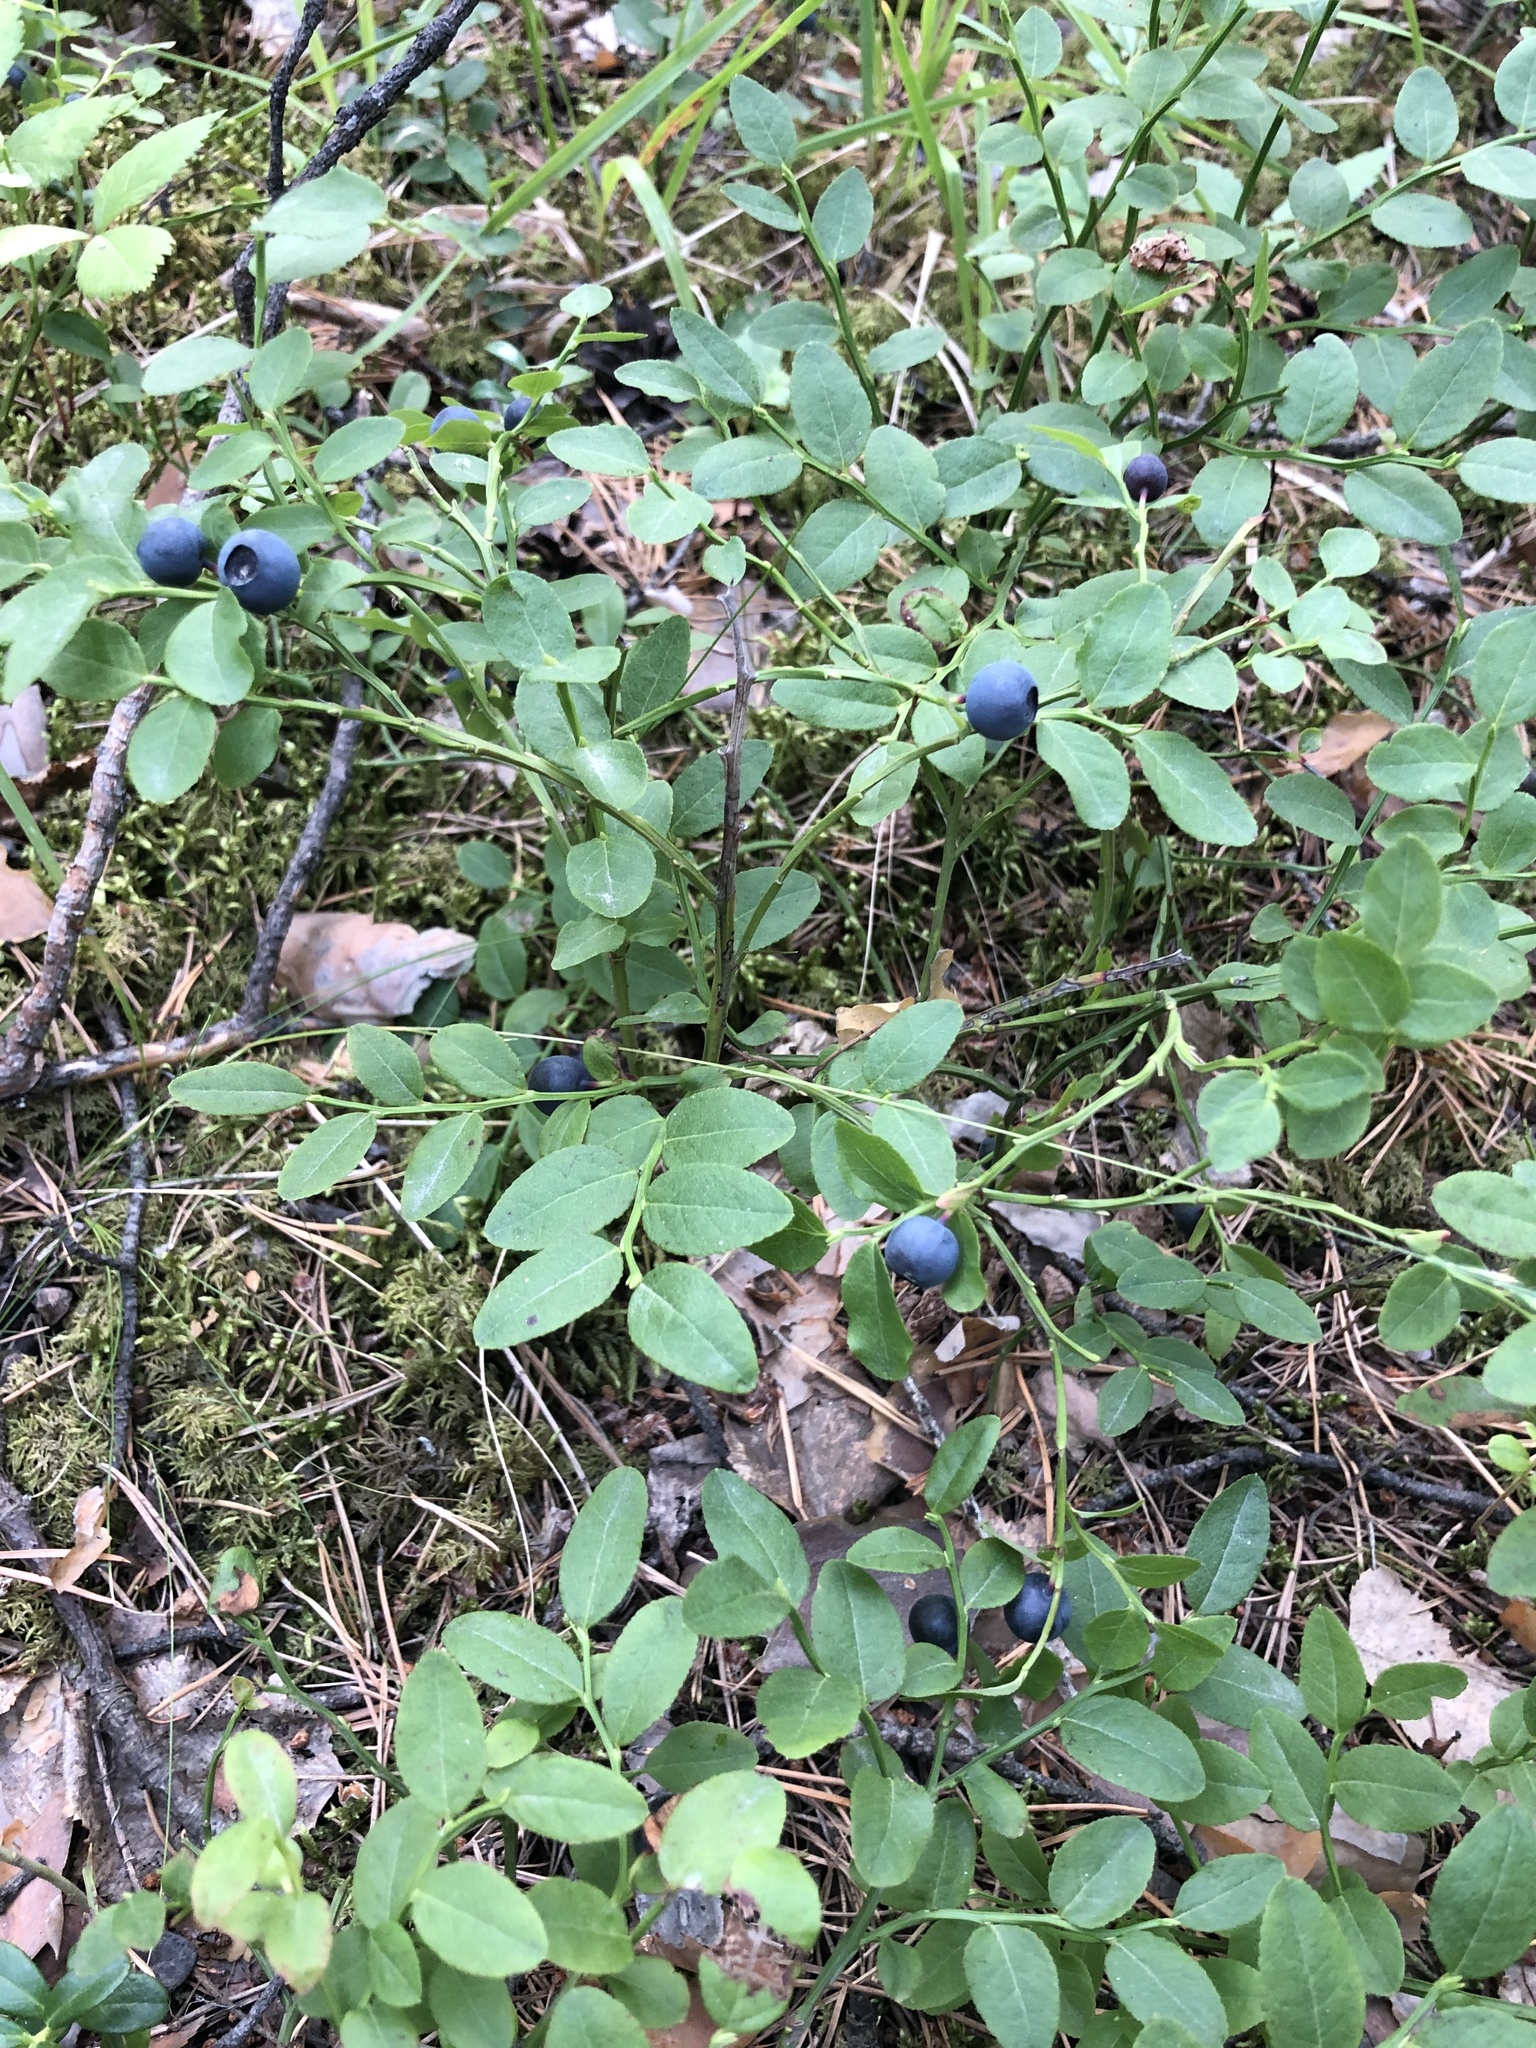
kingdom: Plantae
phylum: Tracheophyta
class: Magnoliopsida
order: Ericales
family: Ericaceae
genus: Vaccinium
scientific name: Vaccinium myrtillus
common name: Bilberry
